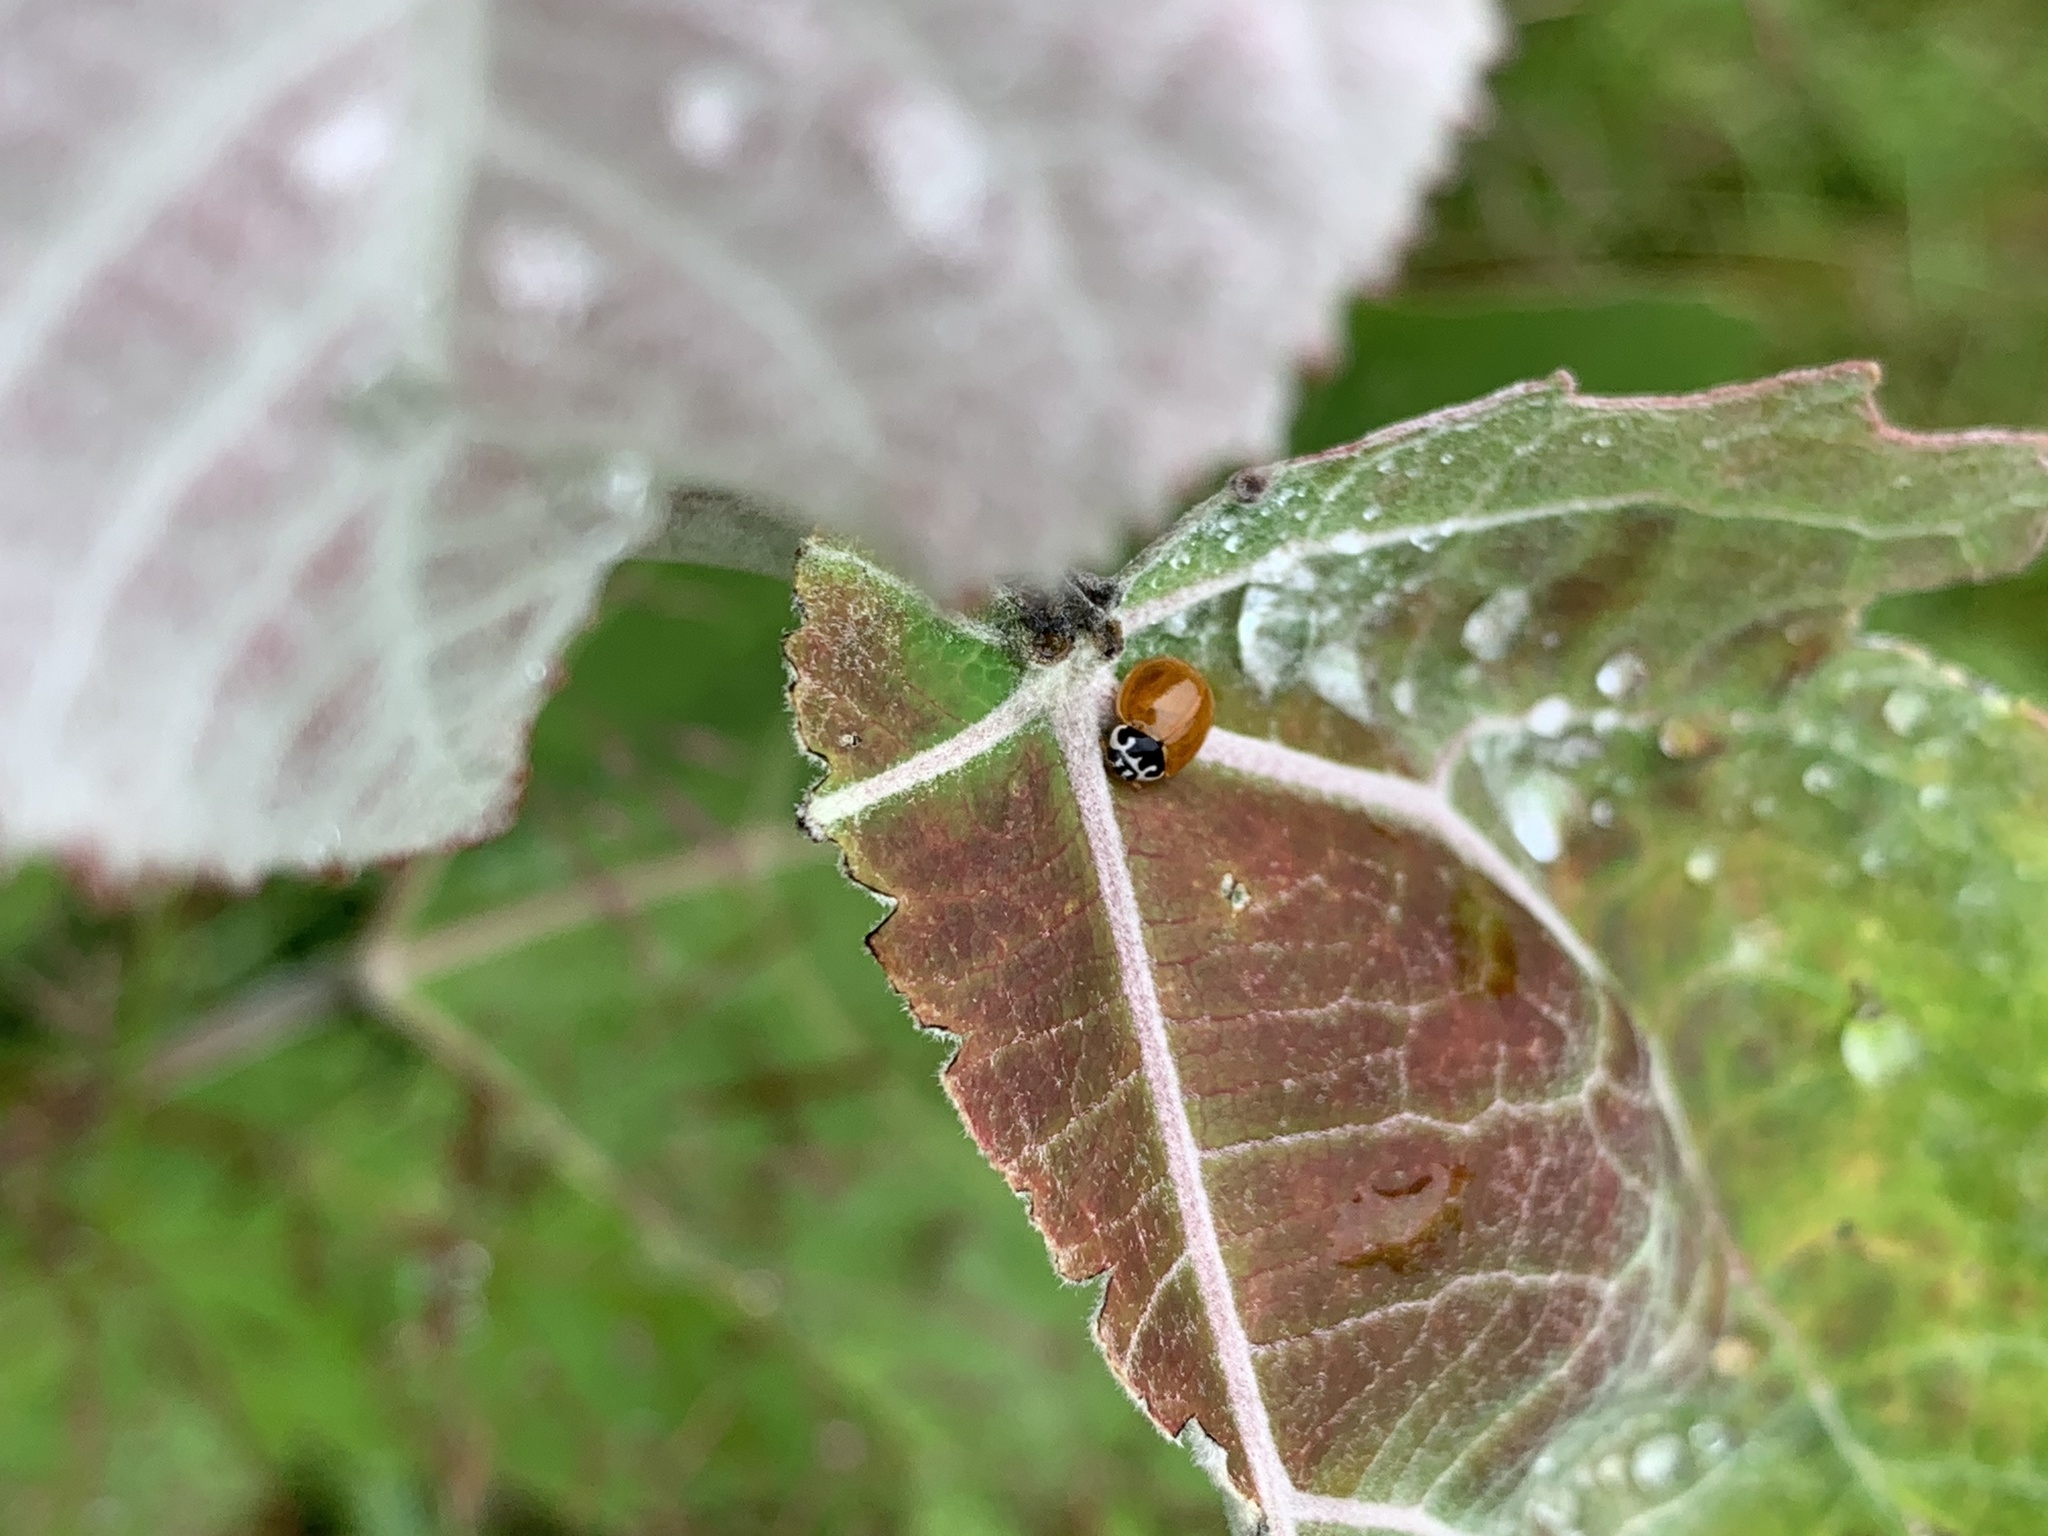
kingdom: Animalia
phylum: Arthropoda
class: Insecta
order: Coleoptera
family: Coccinellidae
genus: Cycloneda
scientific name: Cycloneda munda
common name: Polished lady beetle
